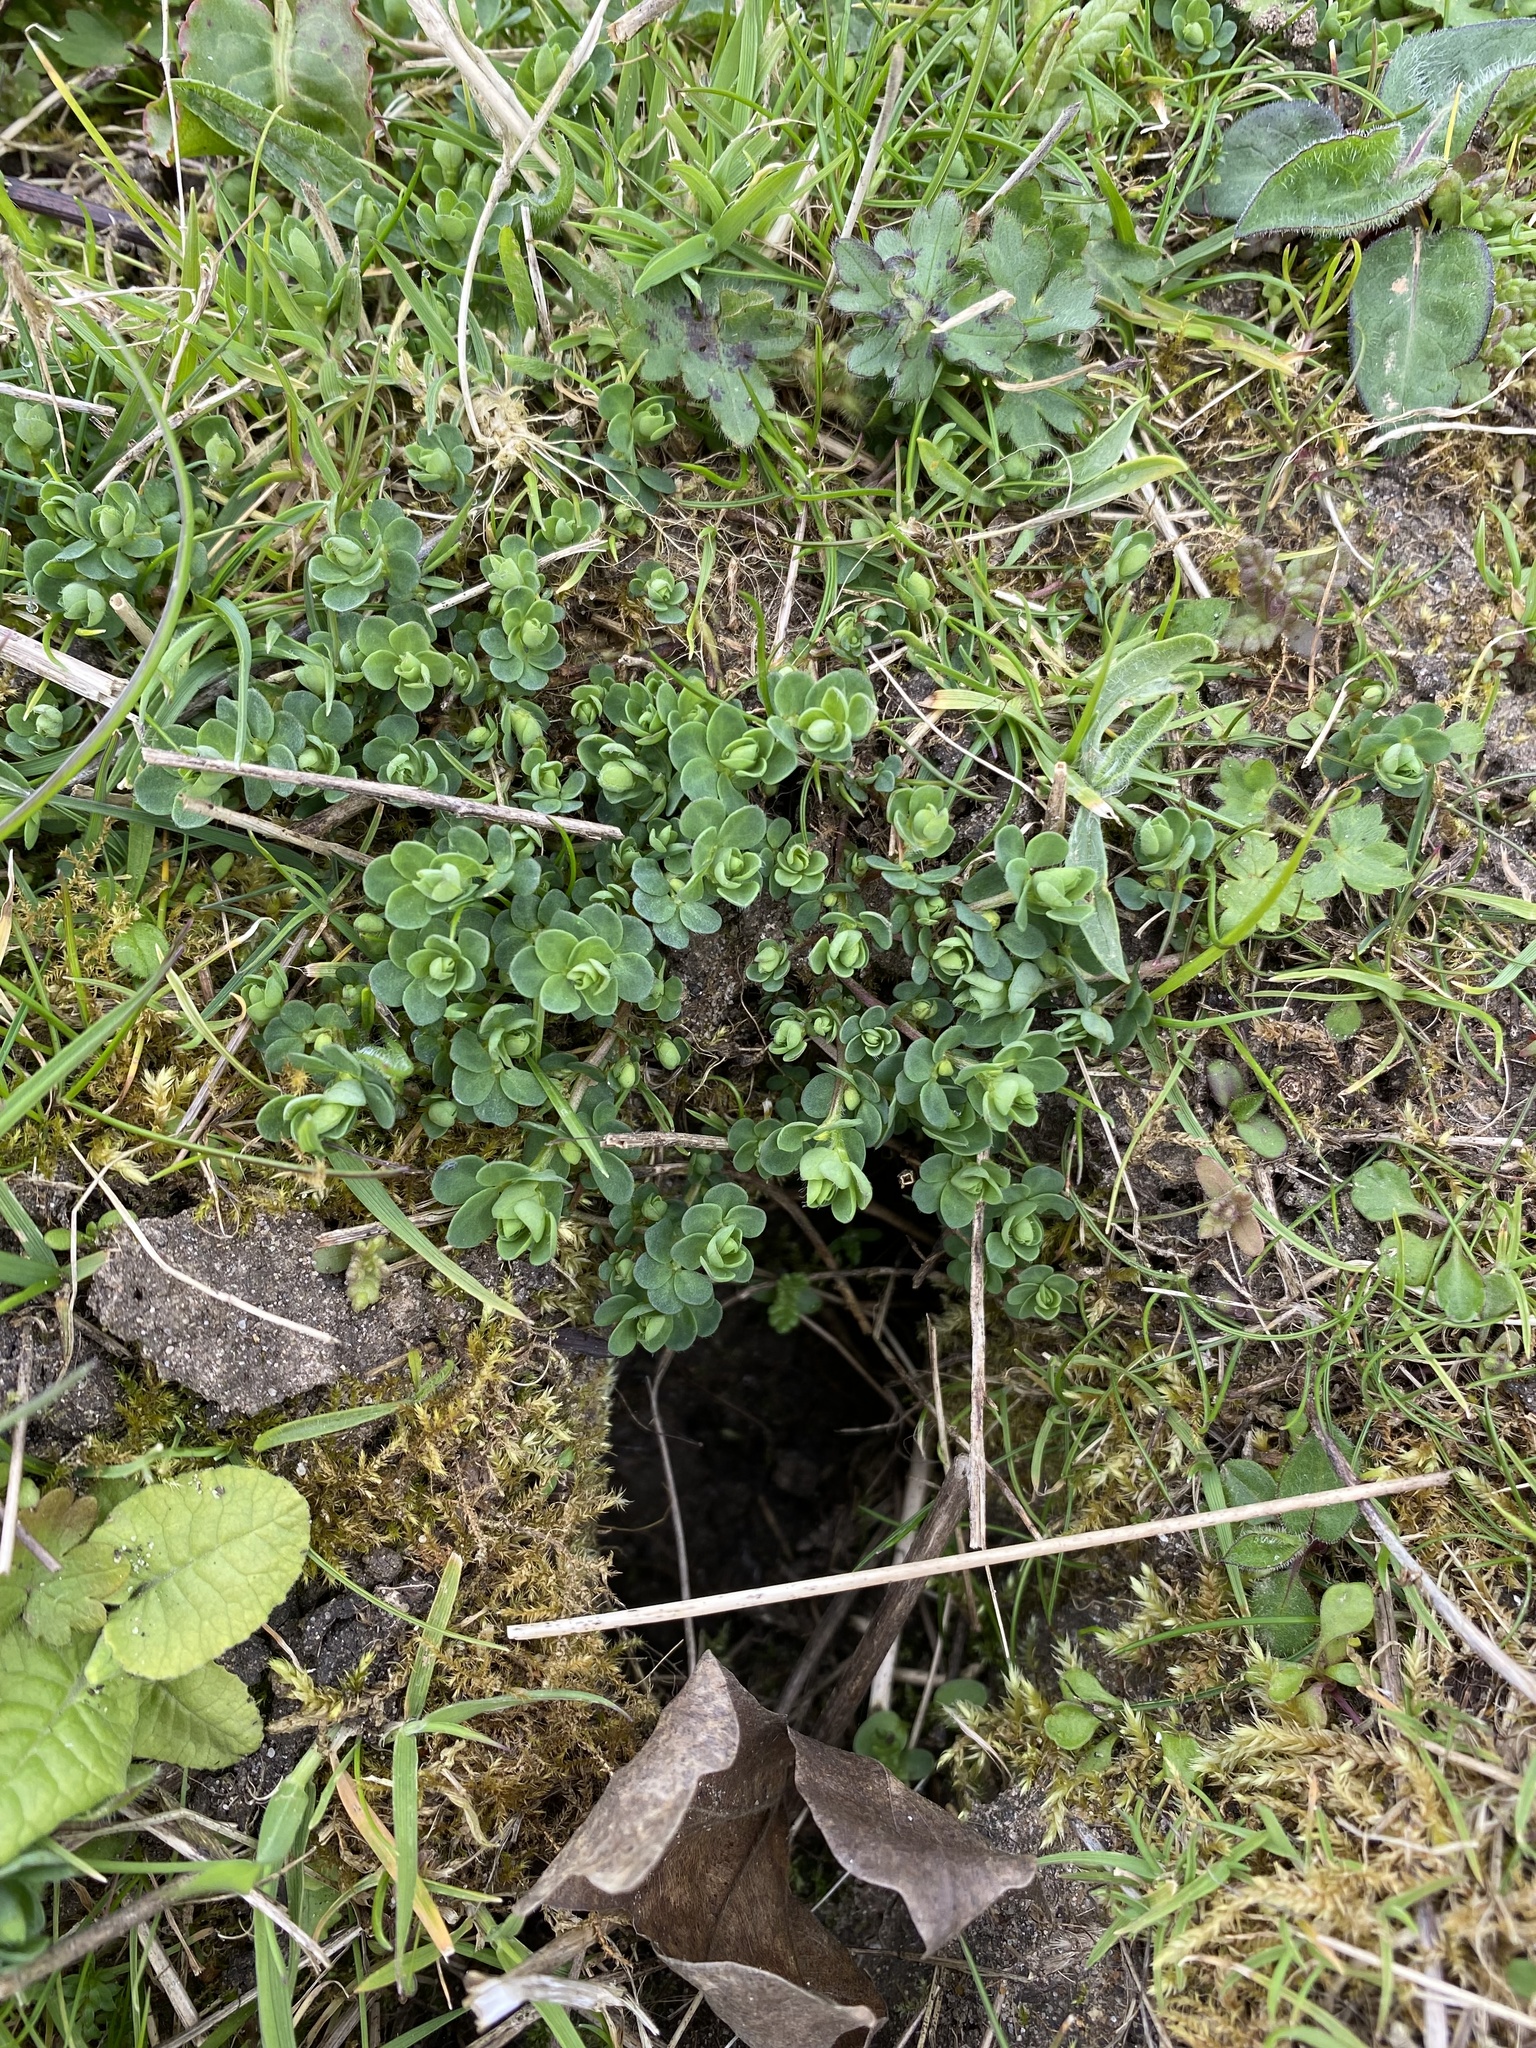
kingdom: Plantae
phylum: Tracheophyta
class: Magnoliopsida
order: Fabales
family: Fabaceae
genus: Lotus
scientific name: Lotus corniculatus
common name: Common bird's-foot-trefoil
